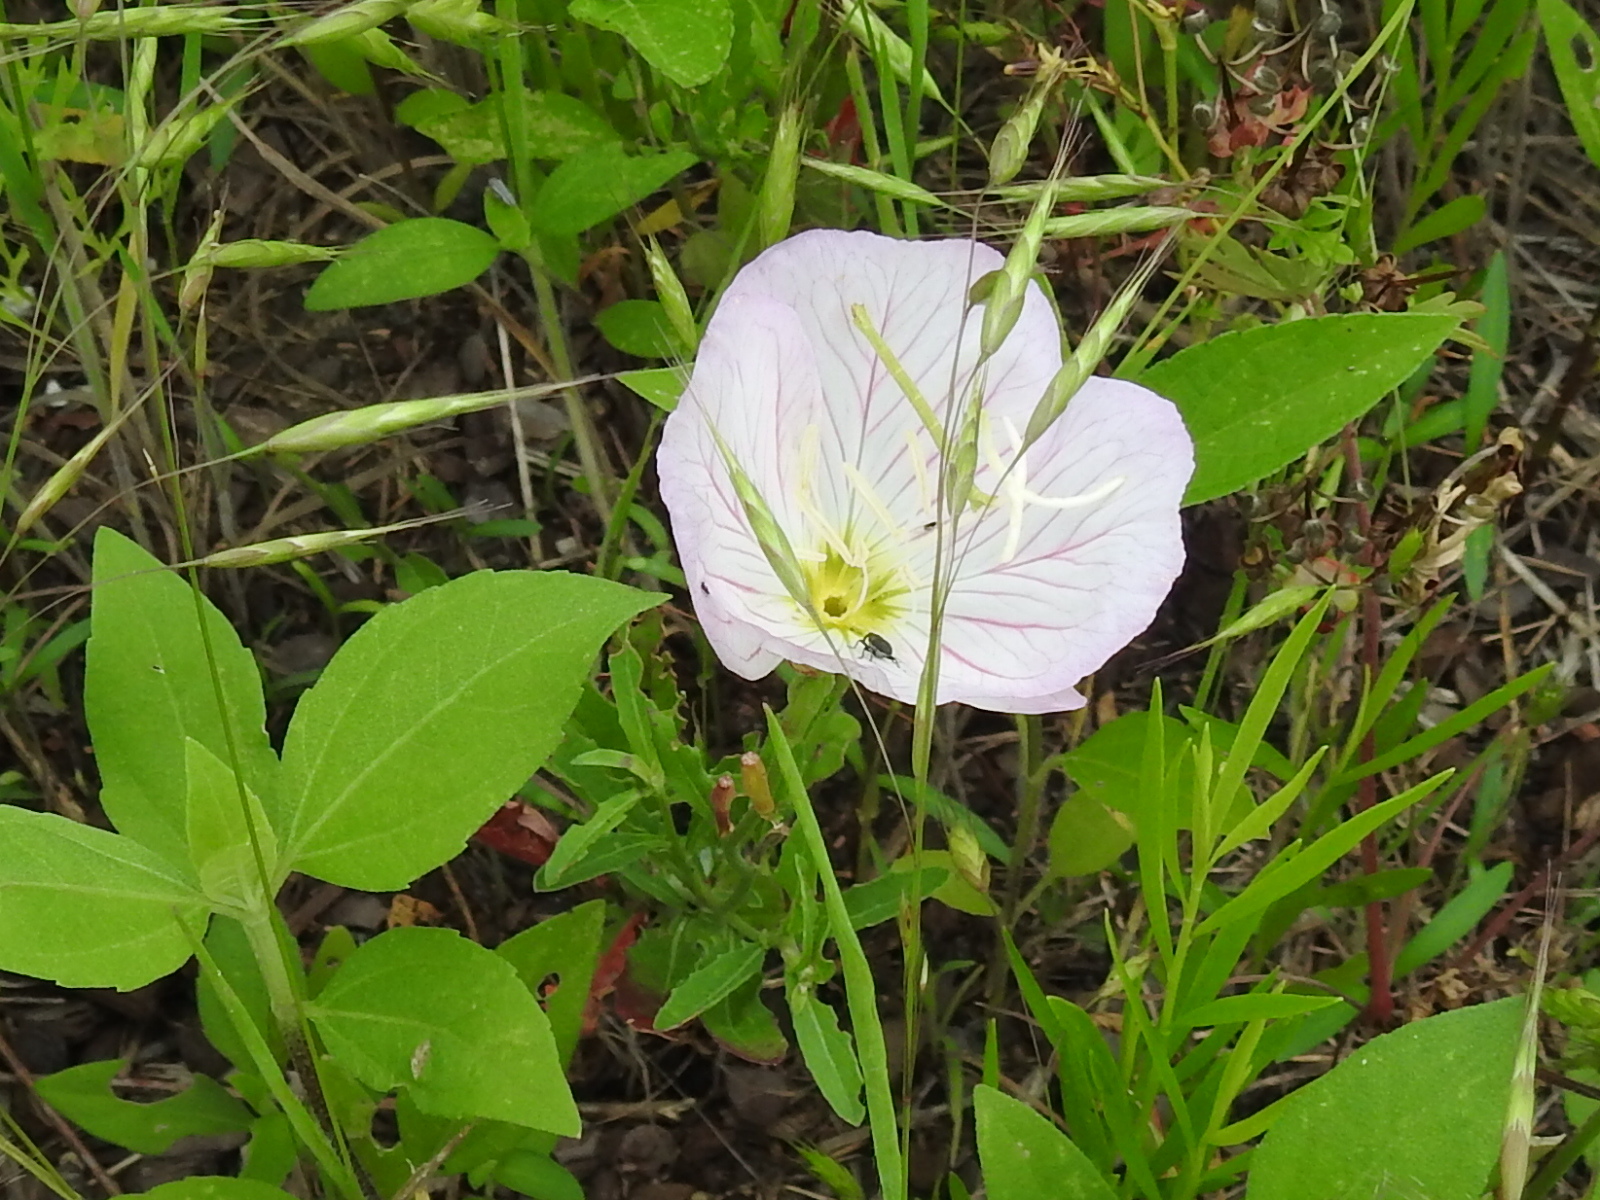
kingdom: Plantae
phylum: Tracheophyta
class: Magnoliopsida
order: Myrtales
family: Onagraceae
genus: Oenothera
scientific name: Oenothera speciosa
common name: White evening-primrose
